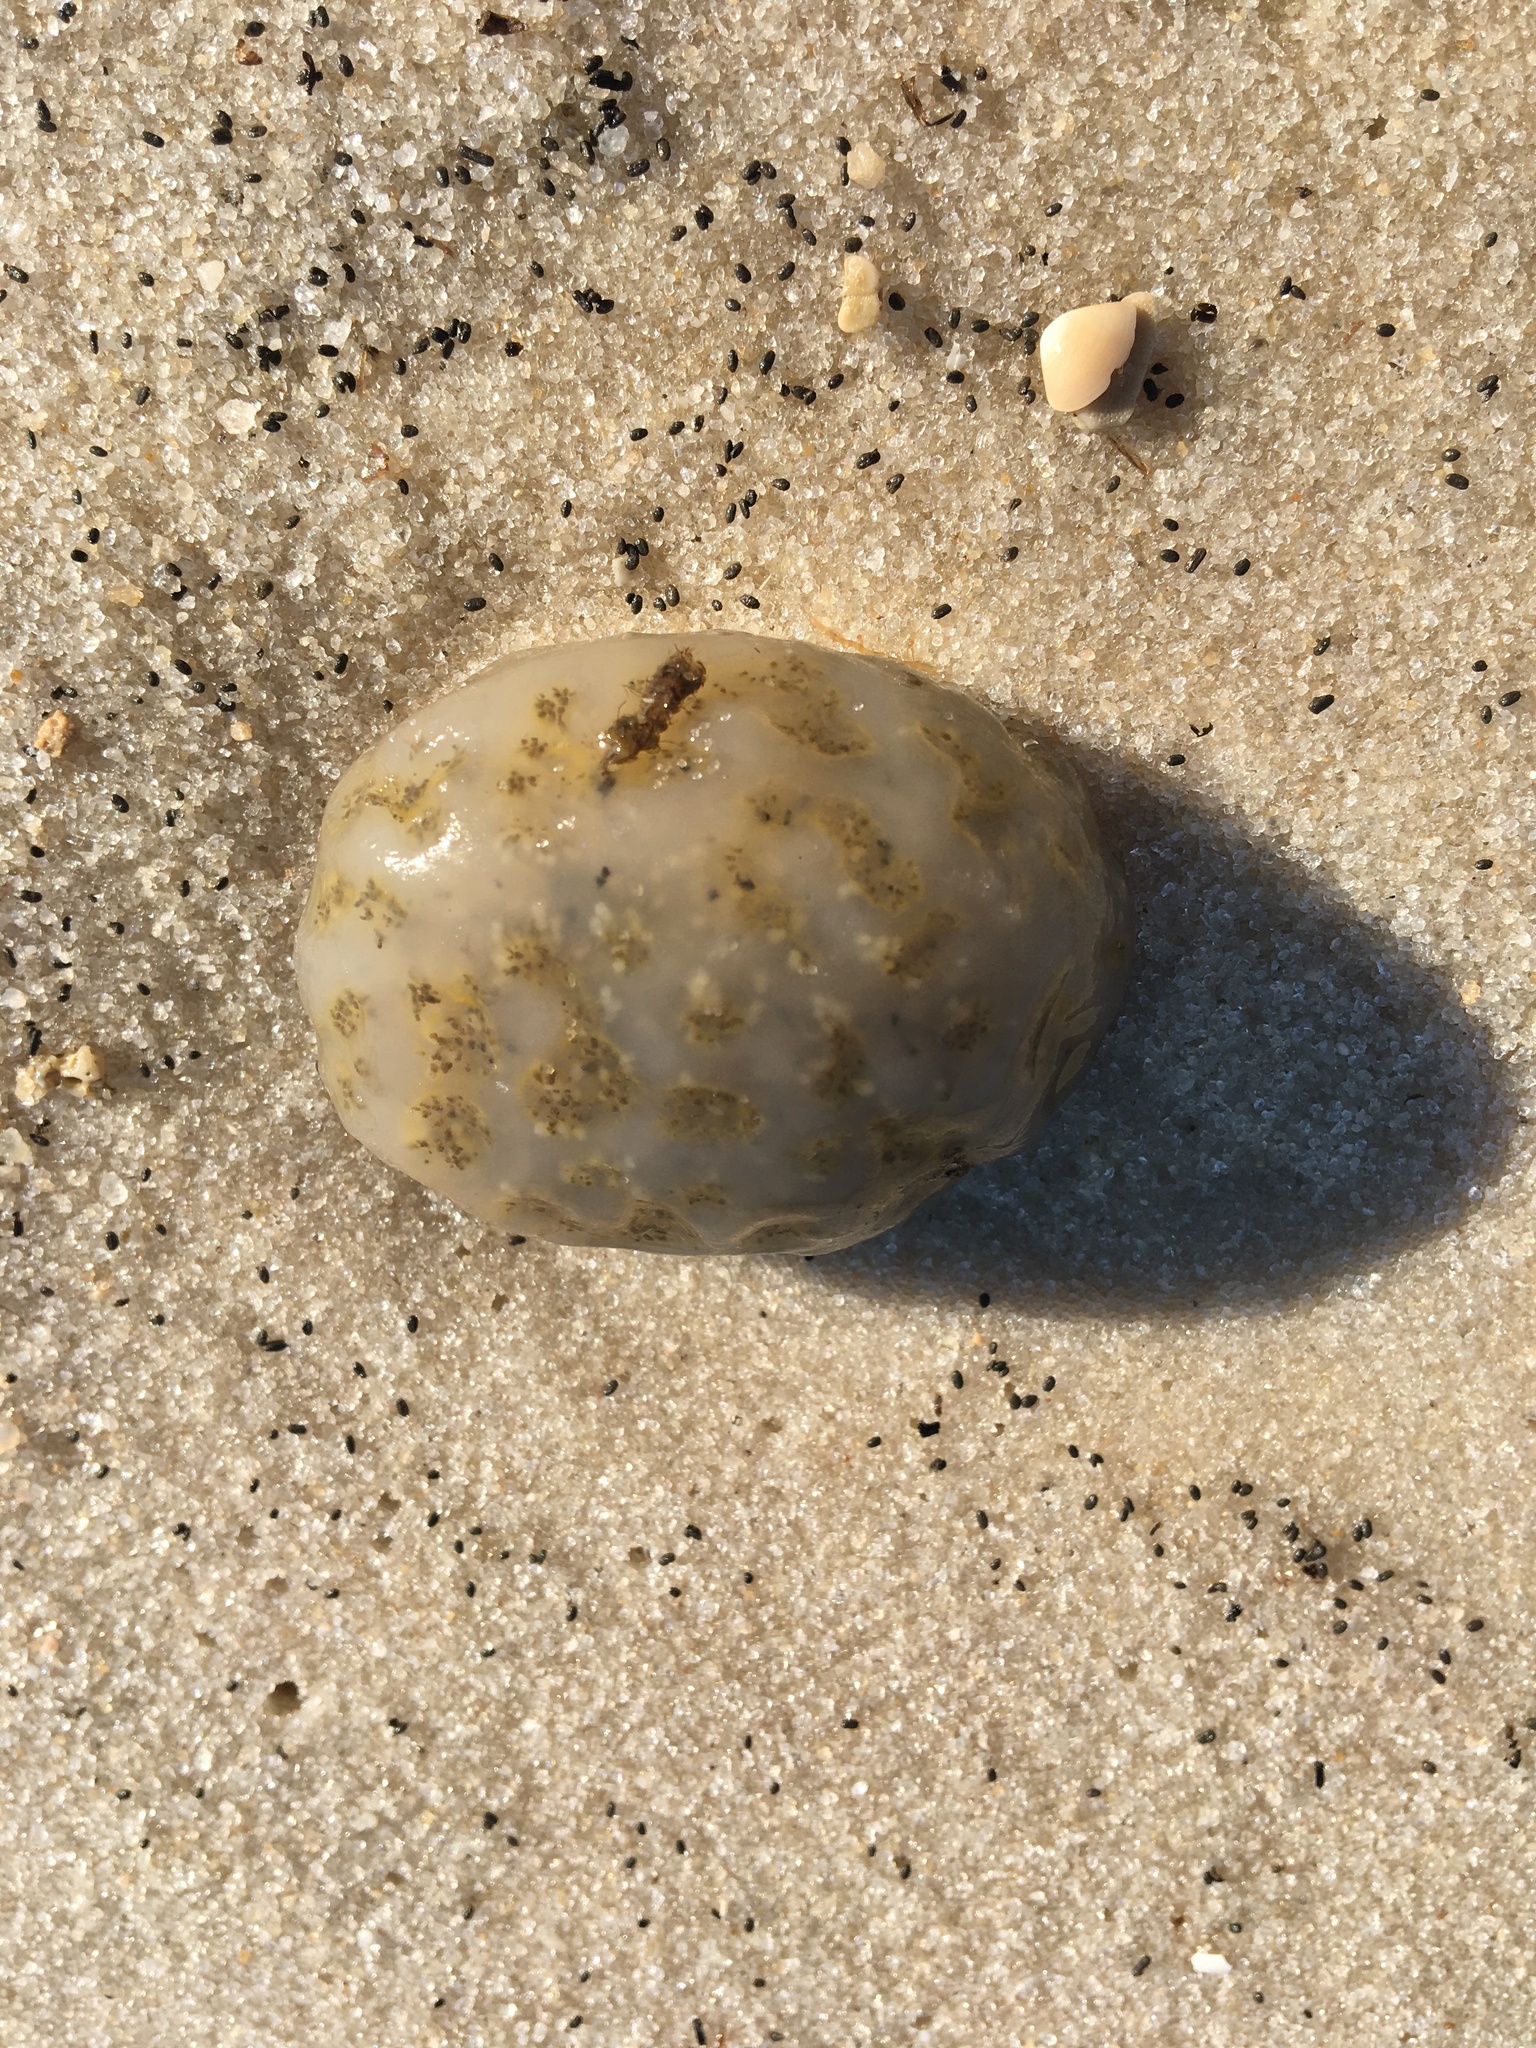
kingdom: Animalia
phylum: Chordata
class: Ascidiacea
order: Aplousobranchia
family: Polyclinidae
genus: Aplidium
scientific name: Aplidium stellatum
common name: Atlantic sea pork
